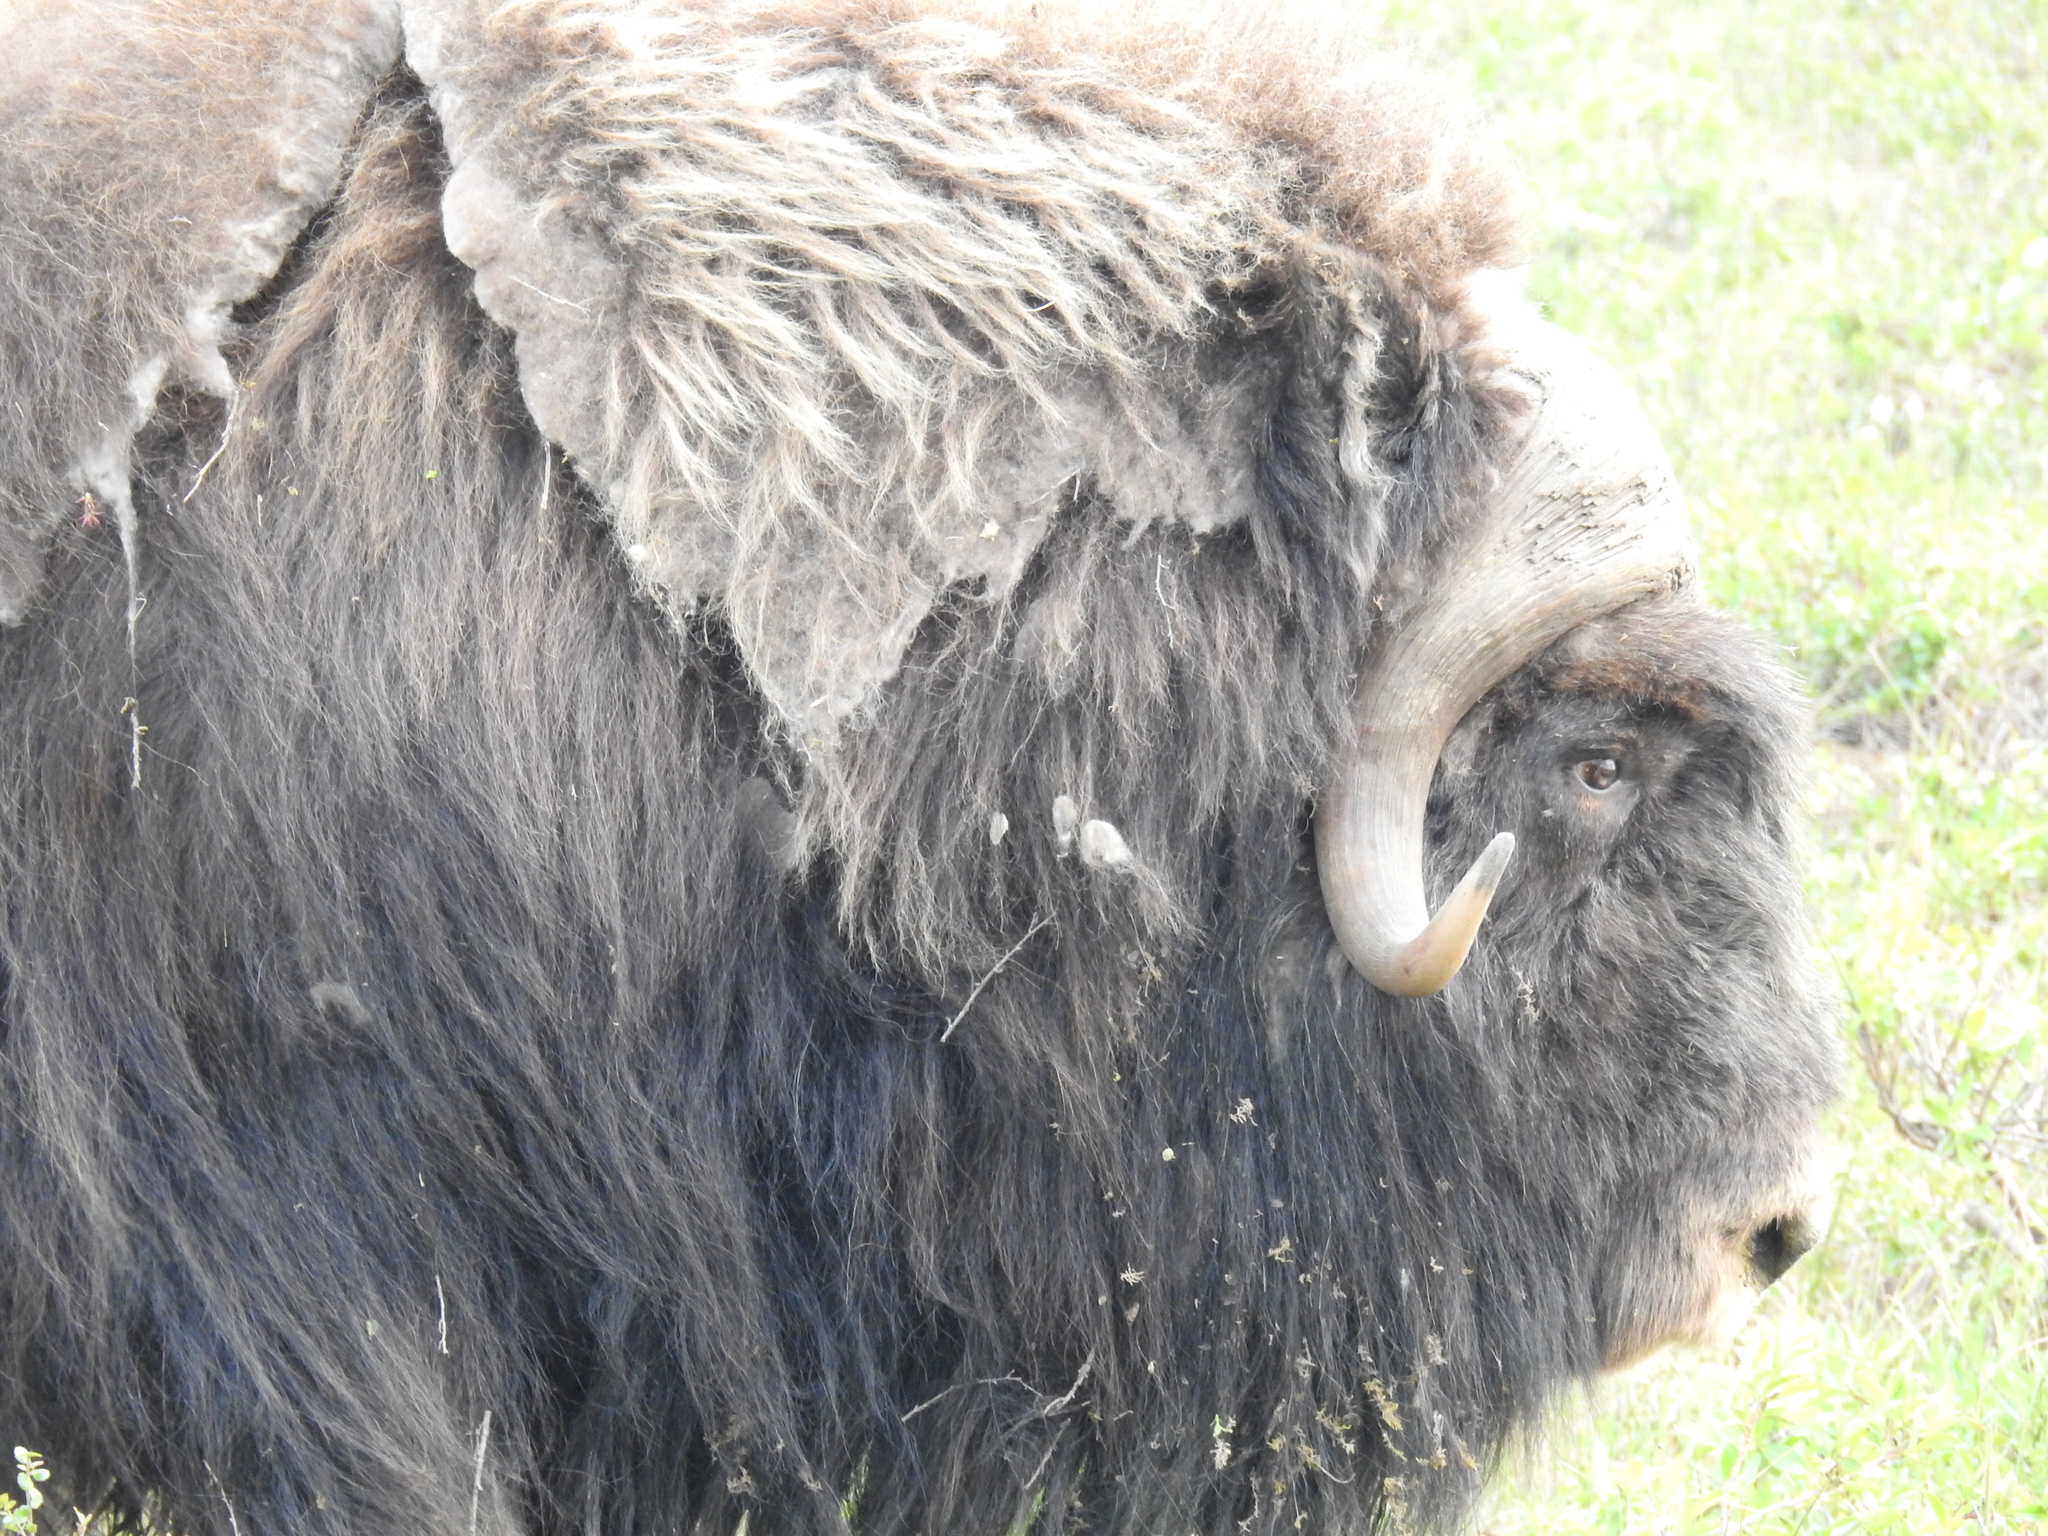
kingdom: Animalia
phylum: Chordata
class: Mammalia
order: Artiodactyla
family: Bovidae
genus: Ovibos
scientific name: Ovibos moschatus
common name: Muskox
